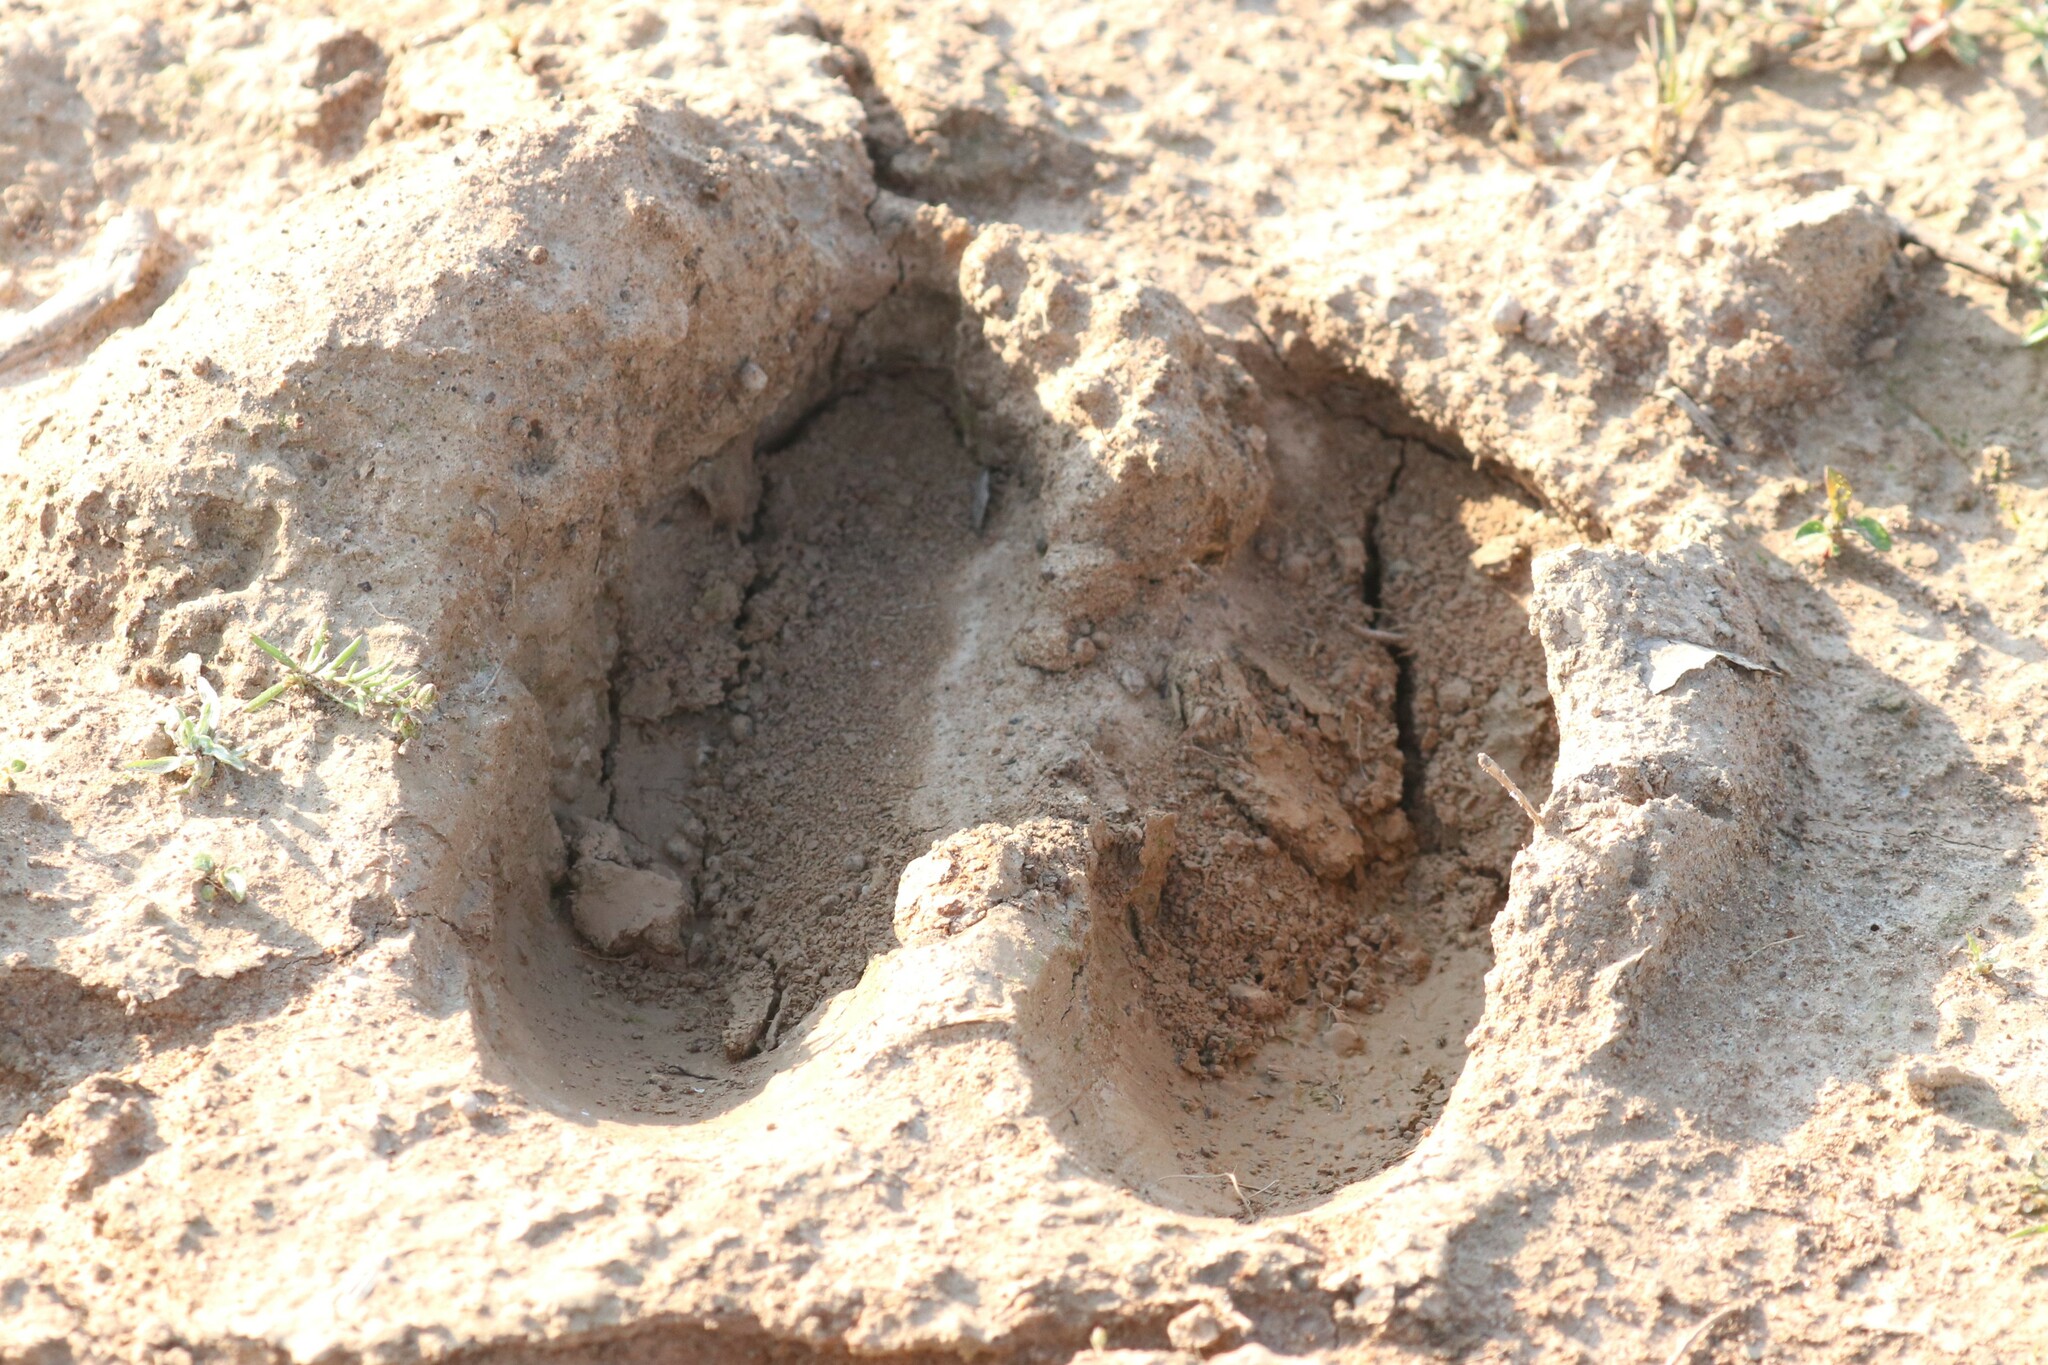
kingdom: Animalia
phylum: Chordata
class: Mammalia
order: Artiodactyla
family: Cervidae
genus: Alces
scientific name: Alces alces
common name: Moose
